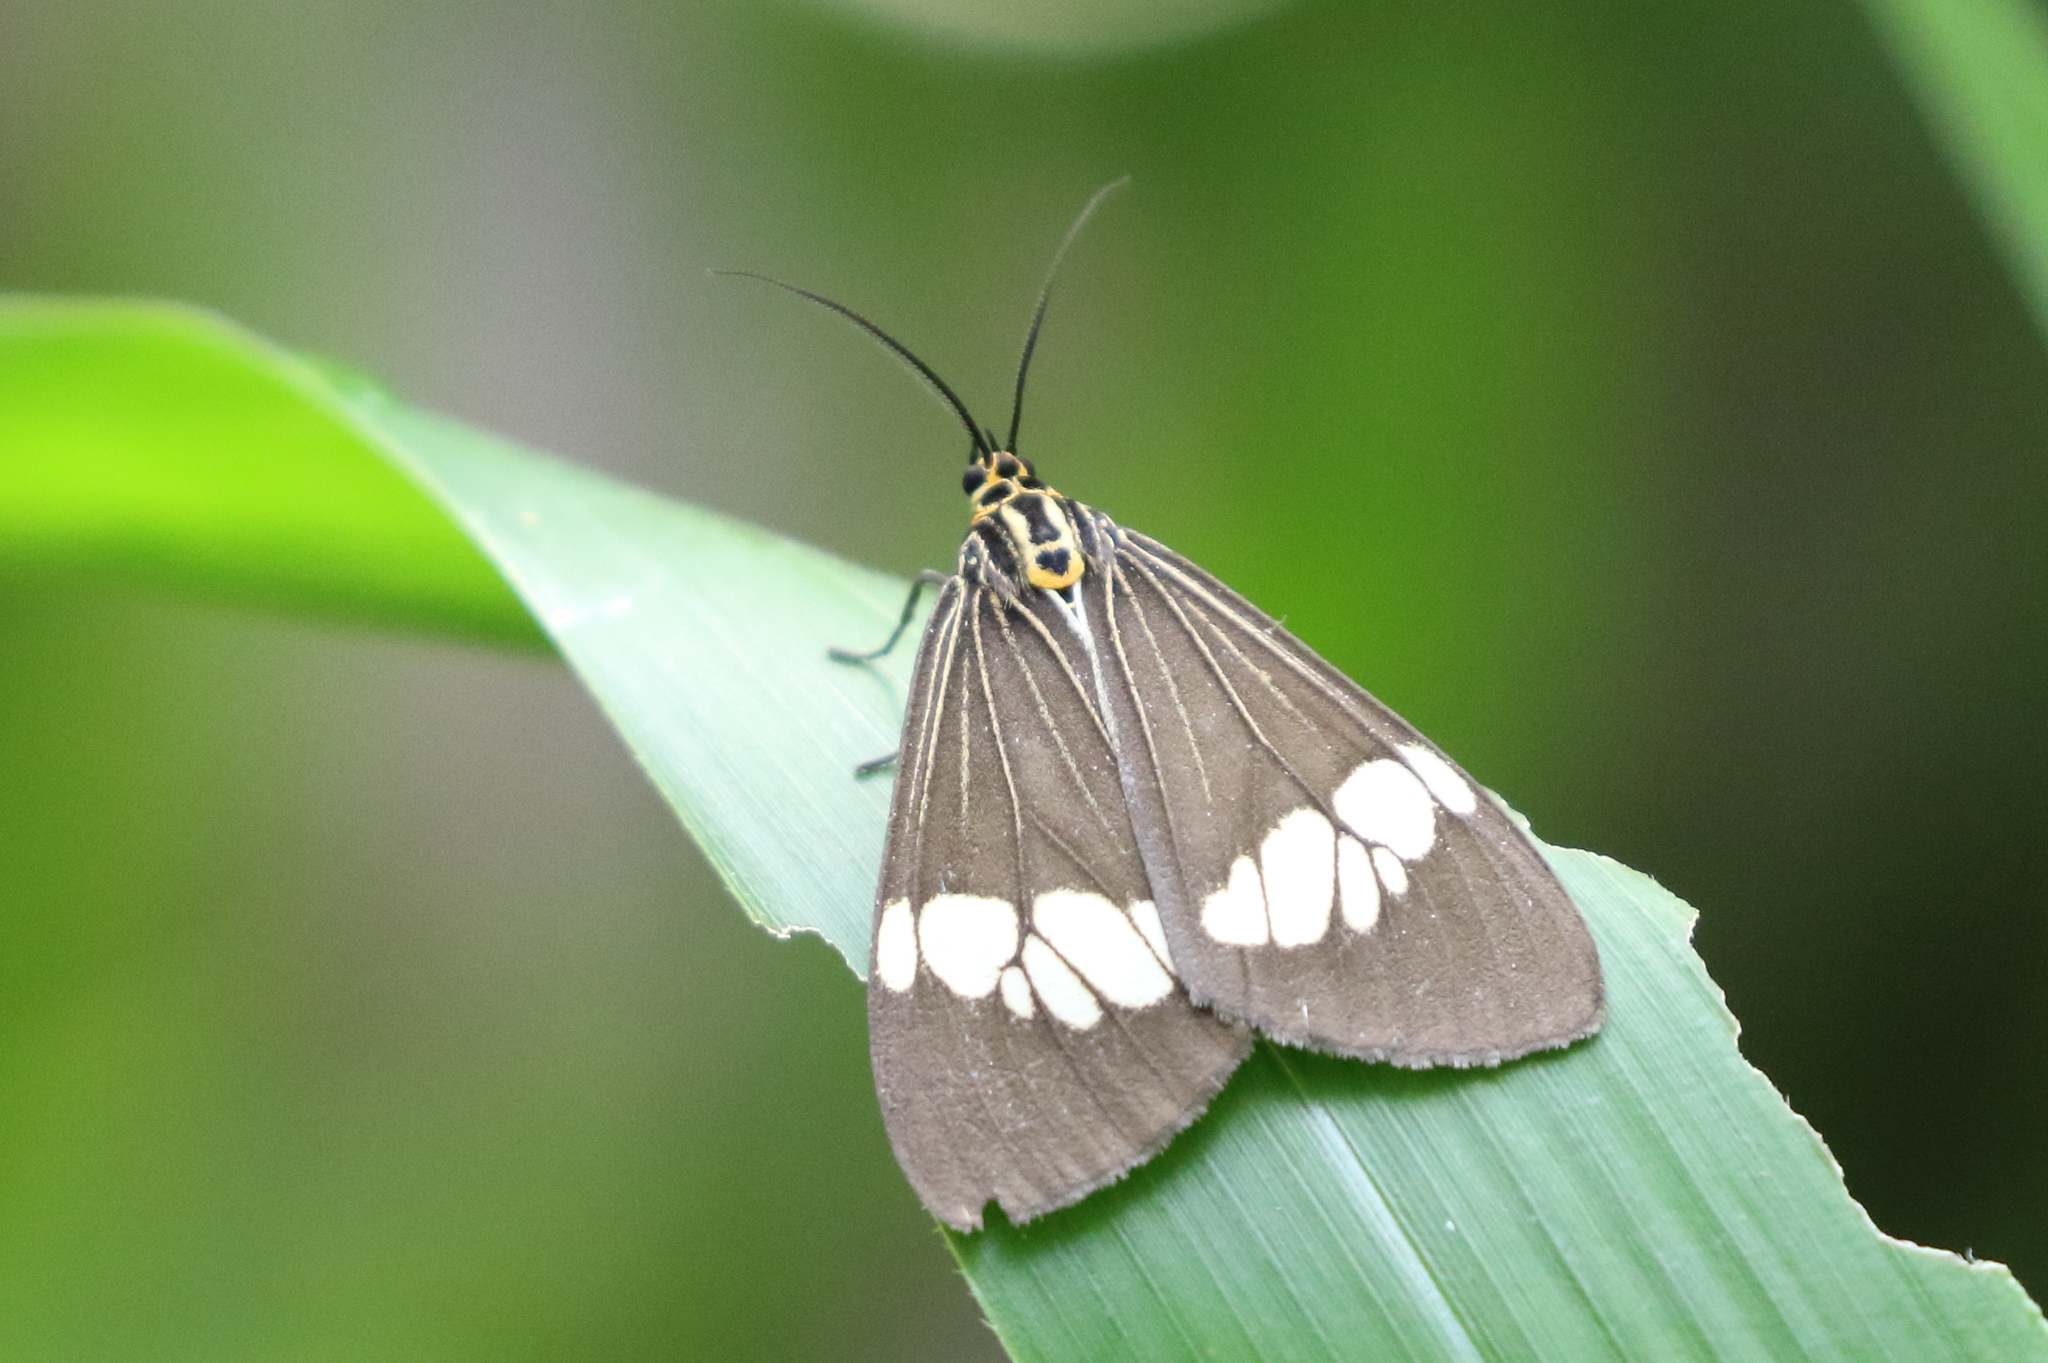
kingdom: Animalia
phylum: Arthropoda
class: Insecta
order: Lepidoptera
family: Erebidae
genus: Nyctemera
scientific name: Nyctemera baulus
